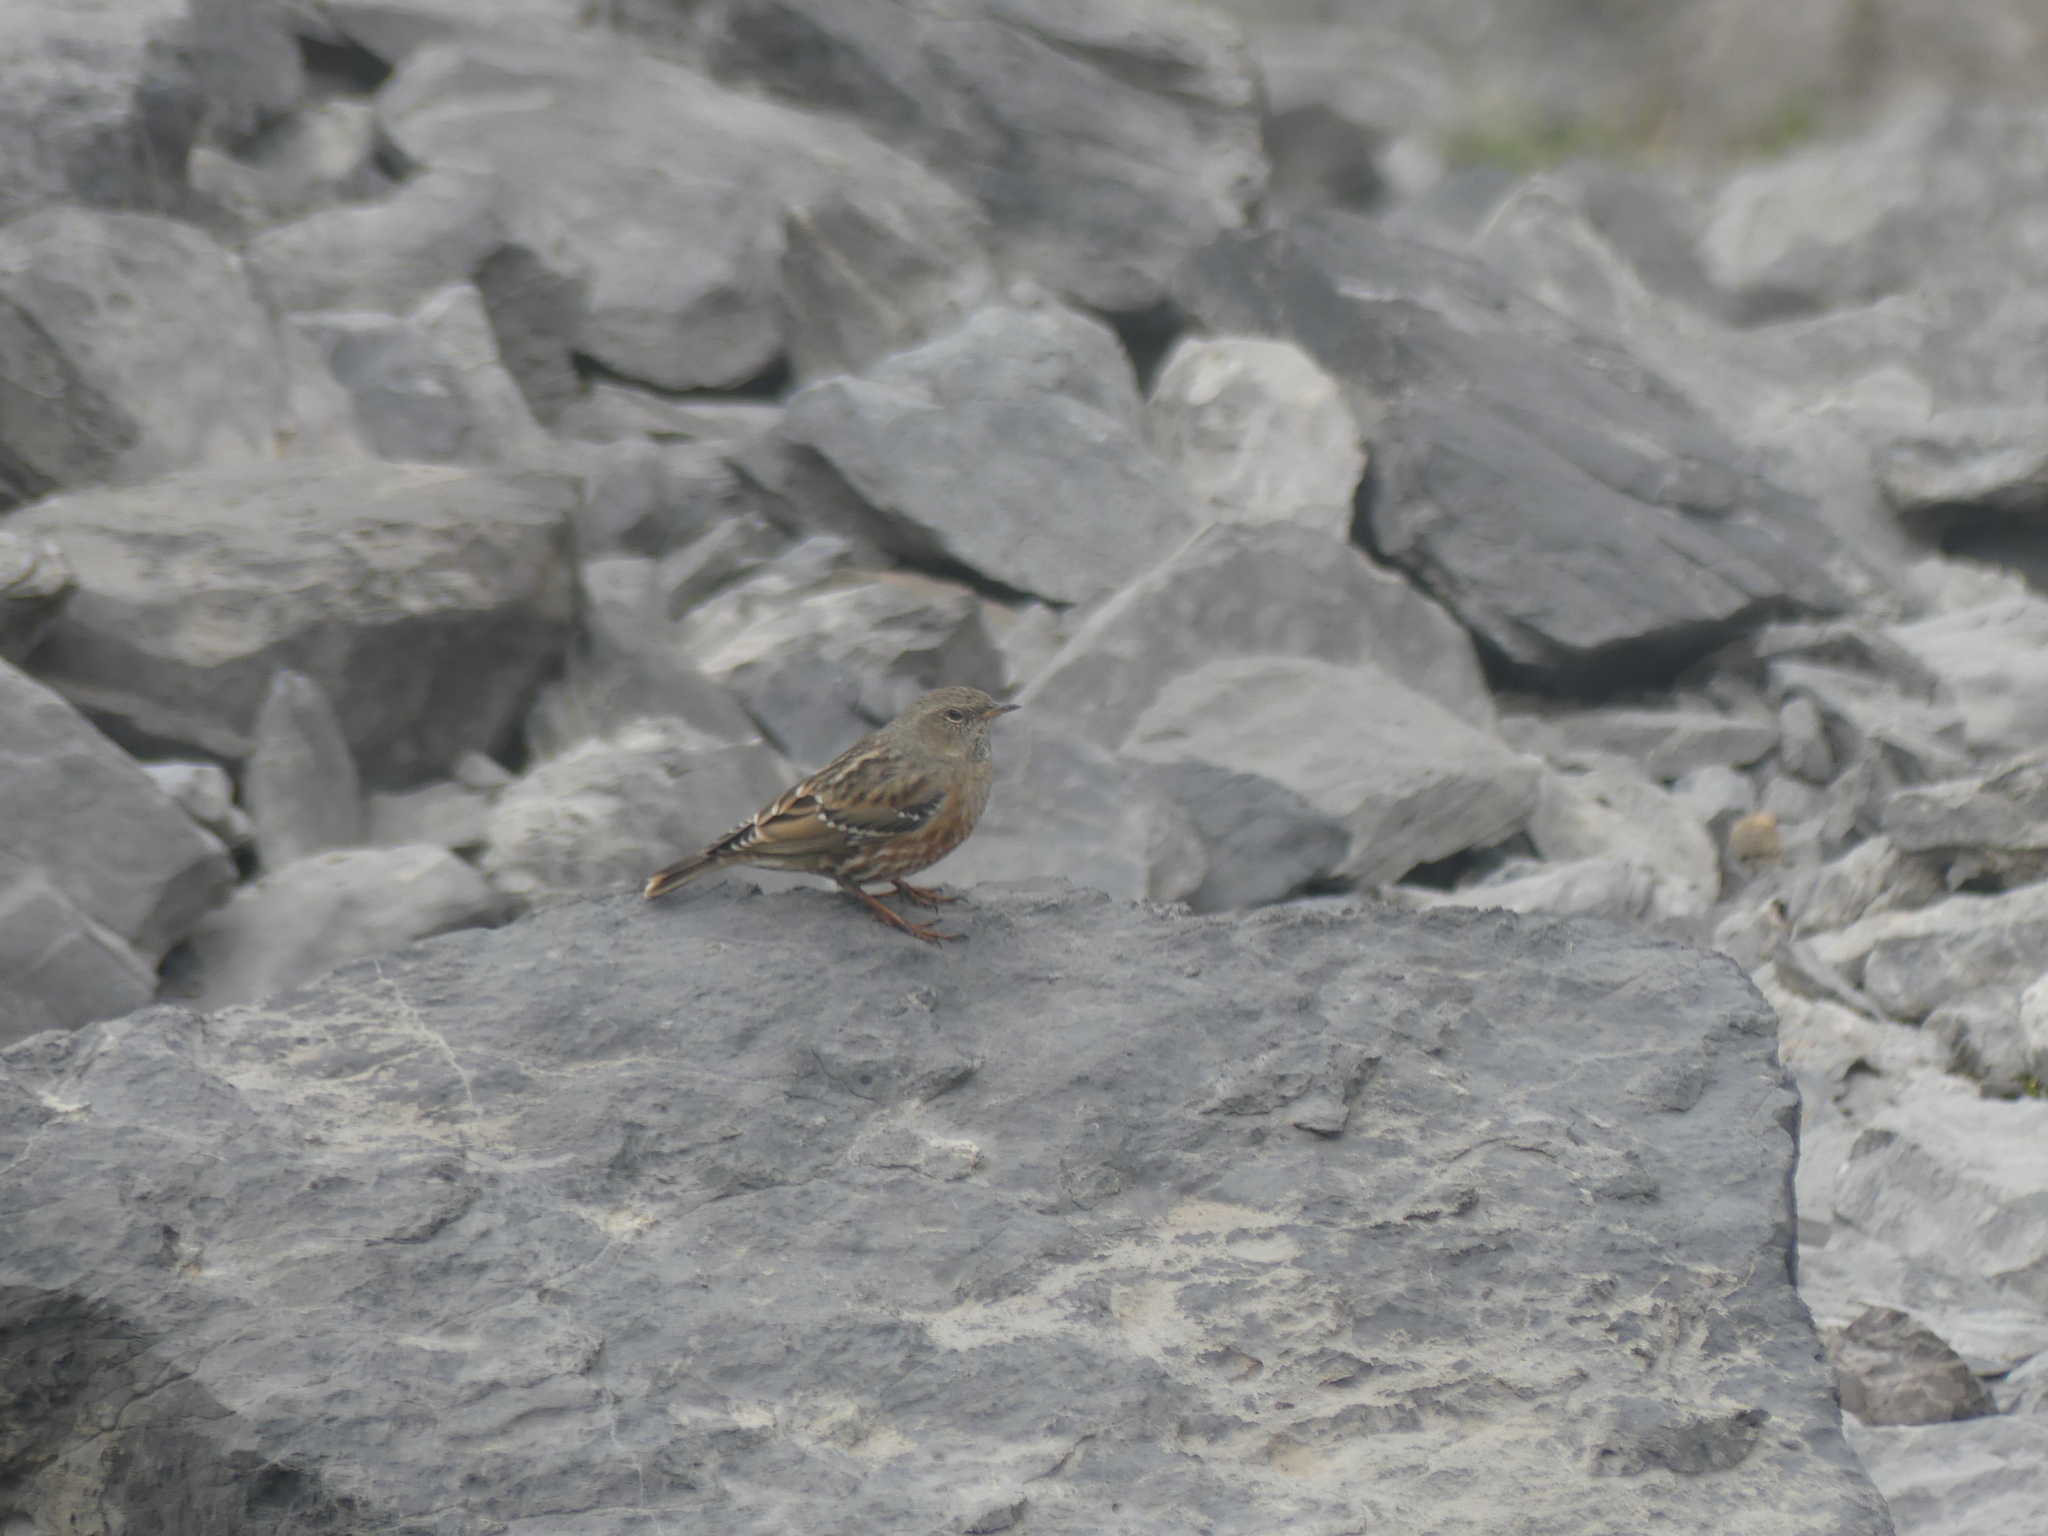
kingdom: Animalia
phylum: Chordata
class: Aves
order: Passeriformes
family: Prunellidae
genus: Prunella
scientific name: Prunella collaris
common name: Alpine accentor
